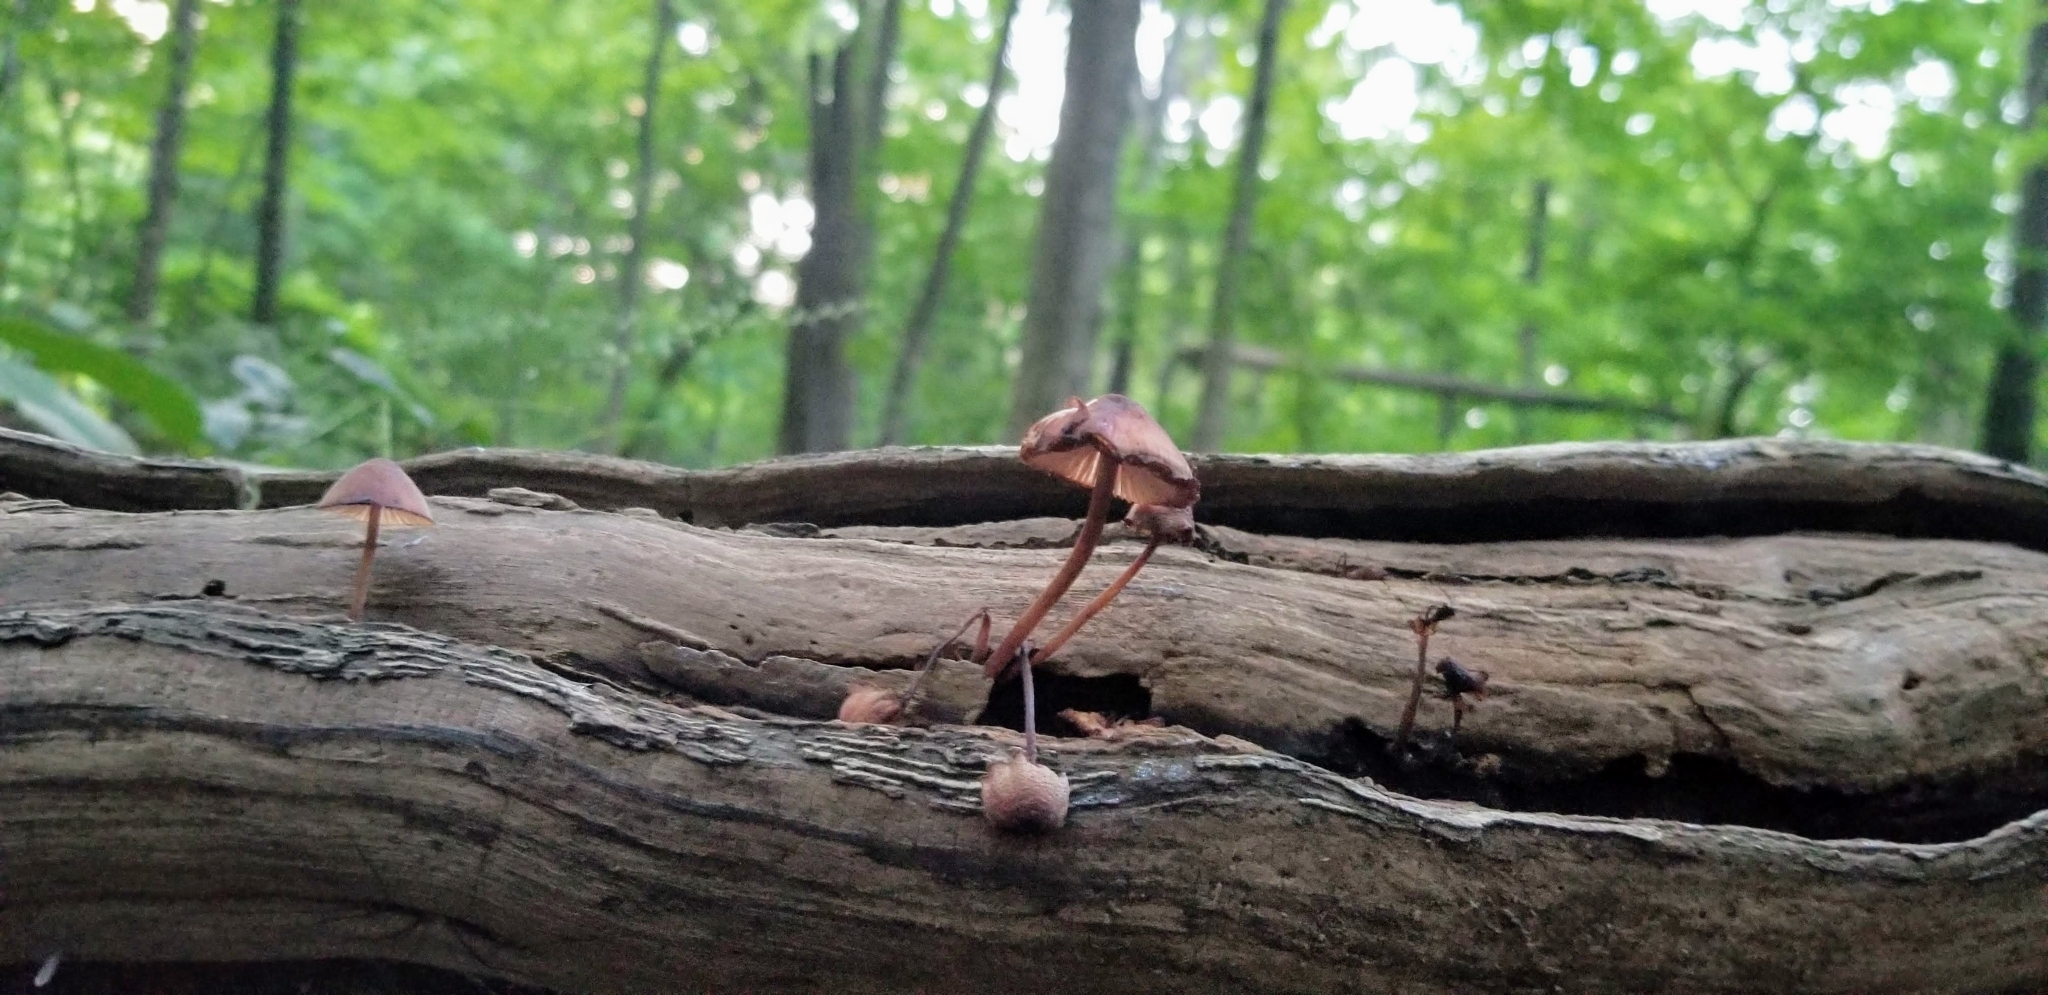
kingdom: Fungi
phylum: Basidiomycota
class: Agaricomycetes
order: Agaricales
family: Mycenaceae
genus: Mycena
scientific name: Mycena haematopus
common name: Burgundydrop bonnet
